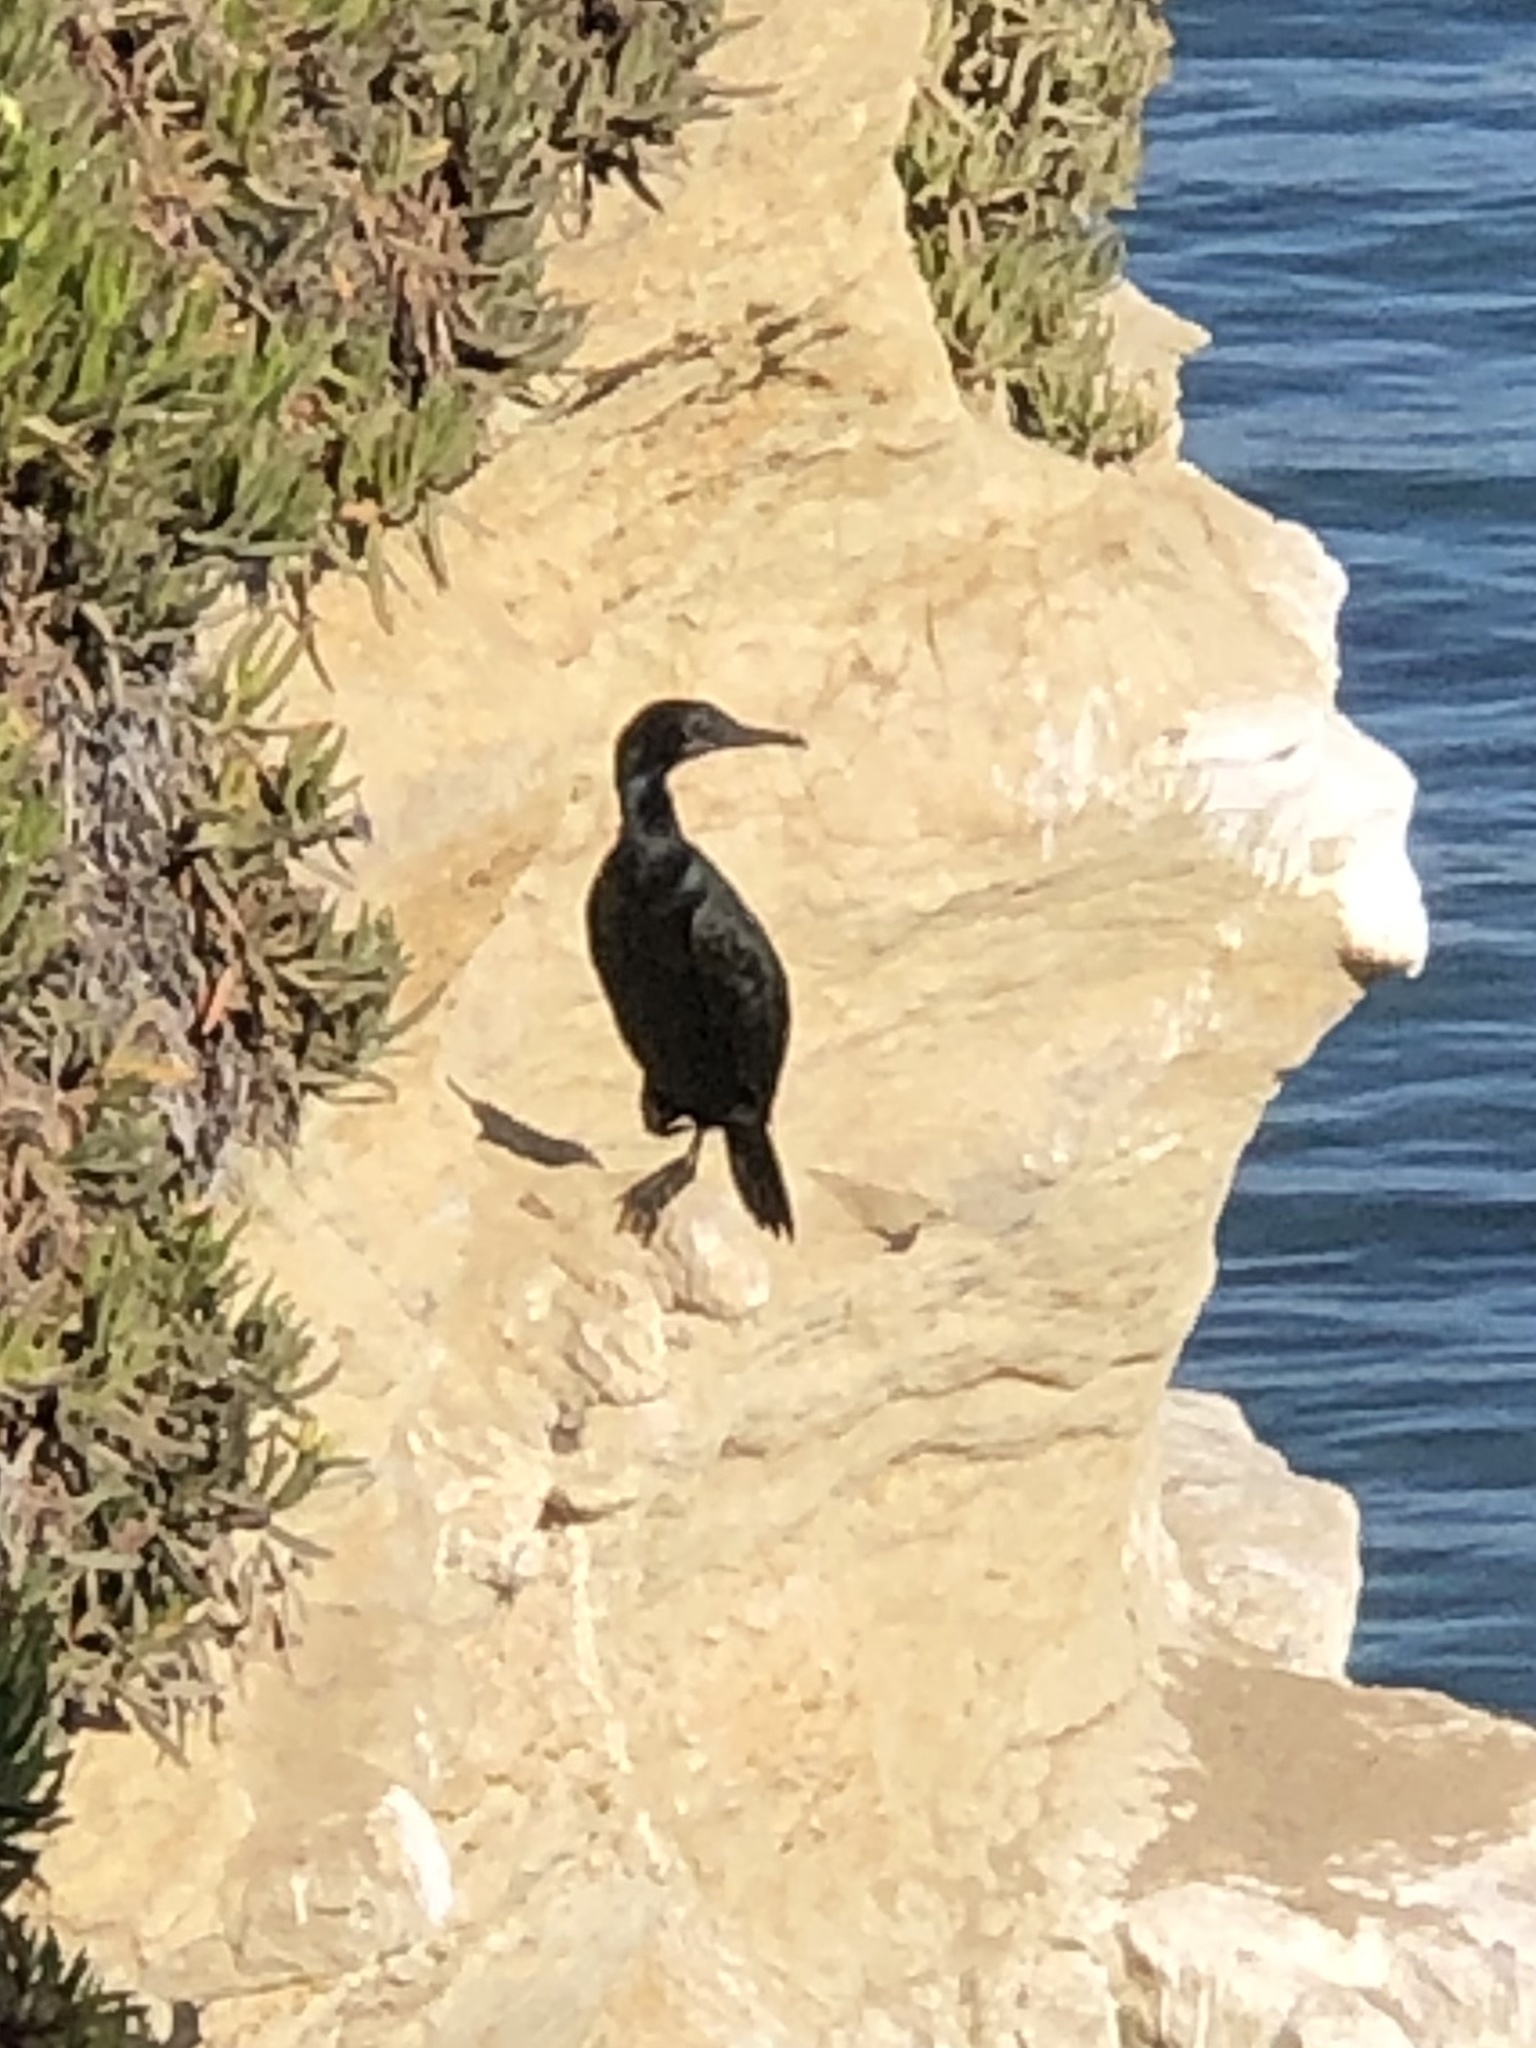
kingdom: Animalia
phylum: Chordata
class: Aves
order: Suliformes
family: Phalacrocoracidae
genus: Urile
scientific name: Urile penicillatus
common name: Brandt's cormorant
